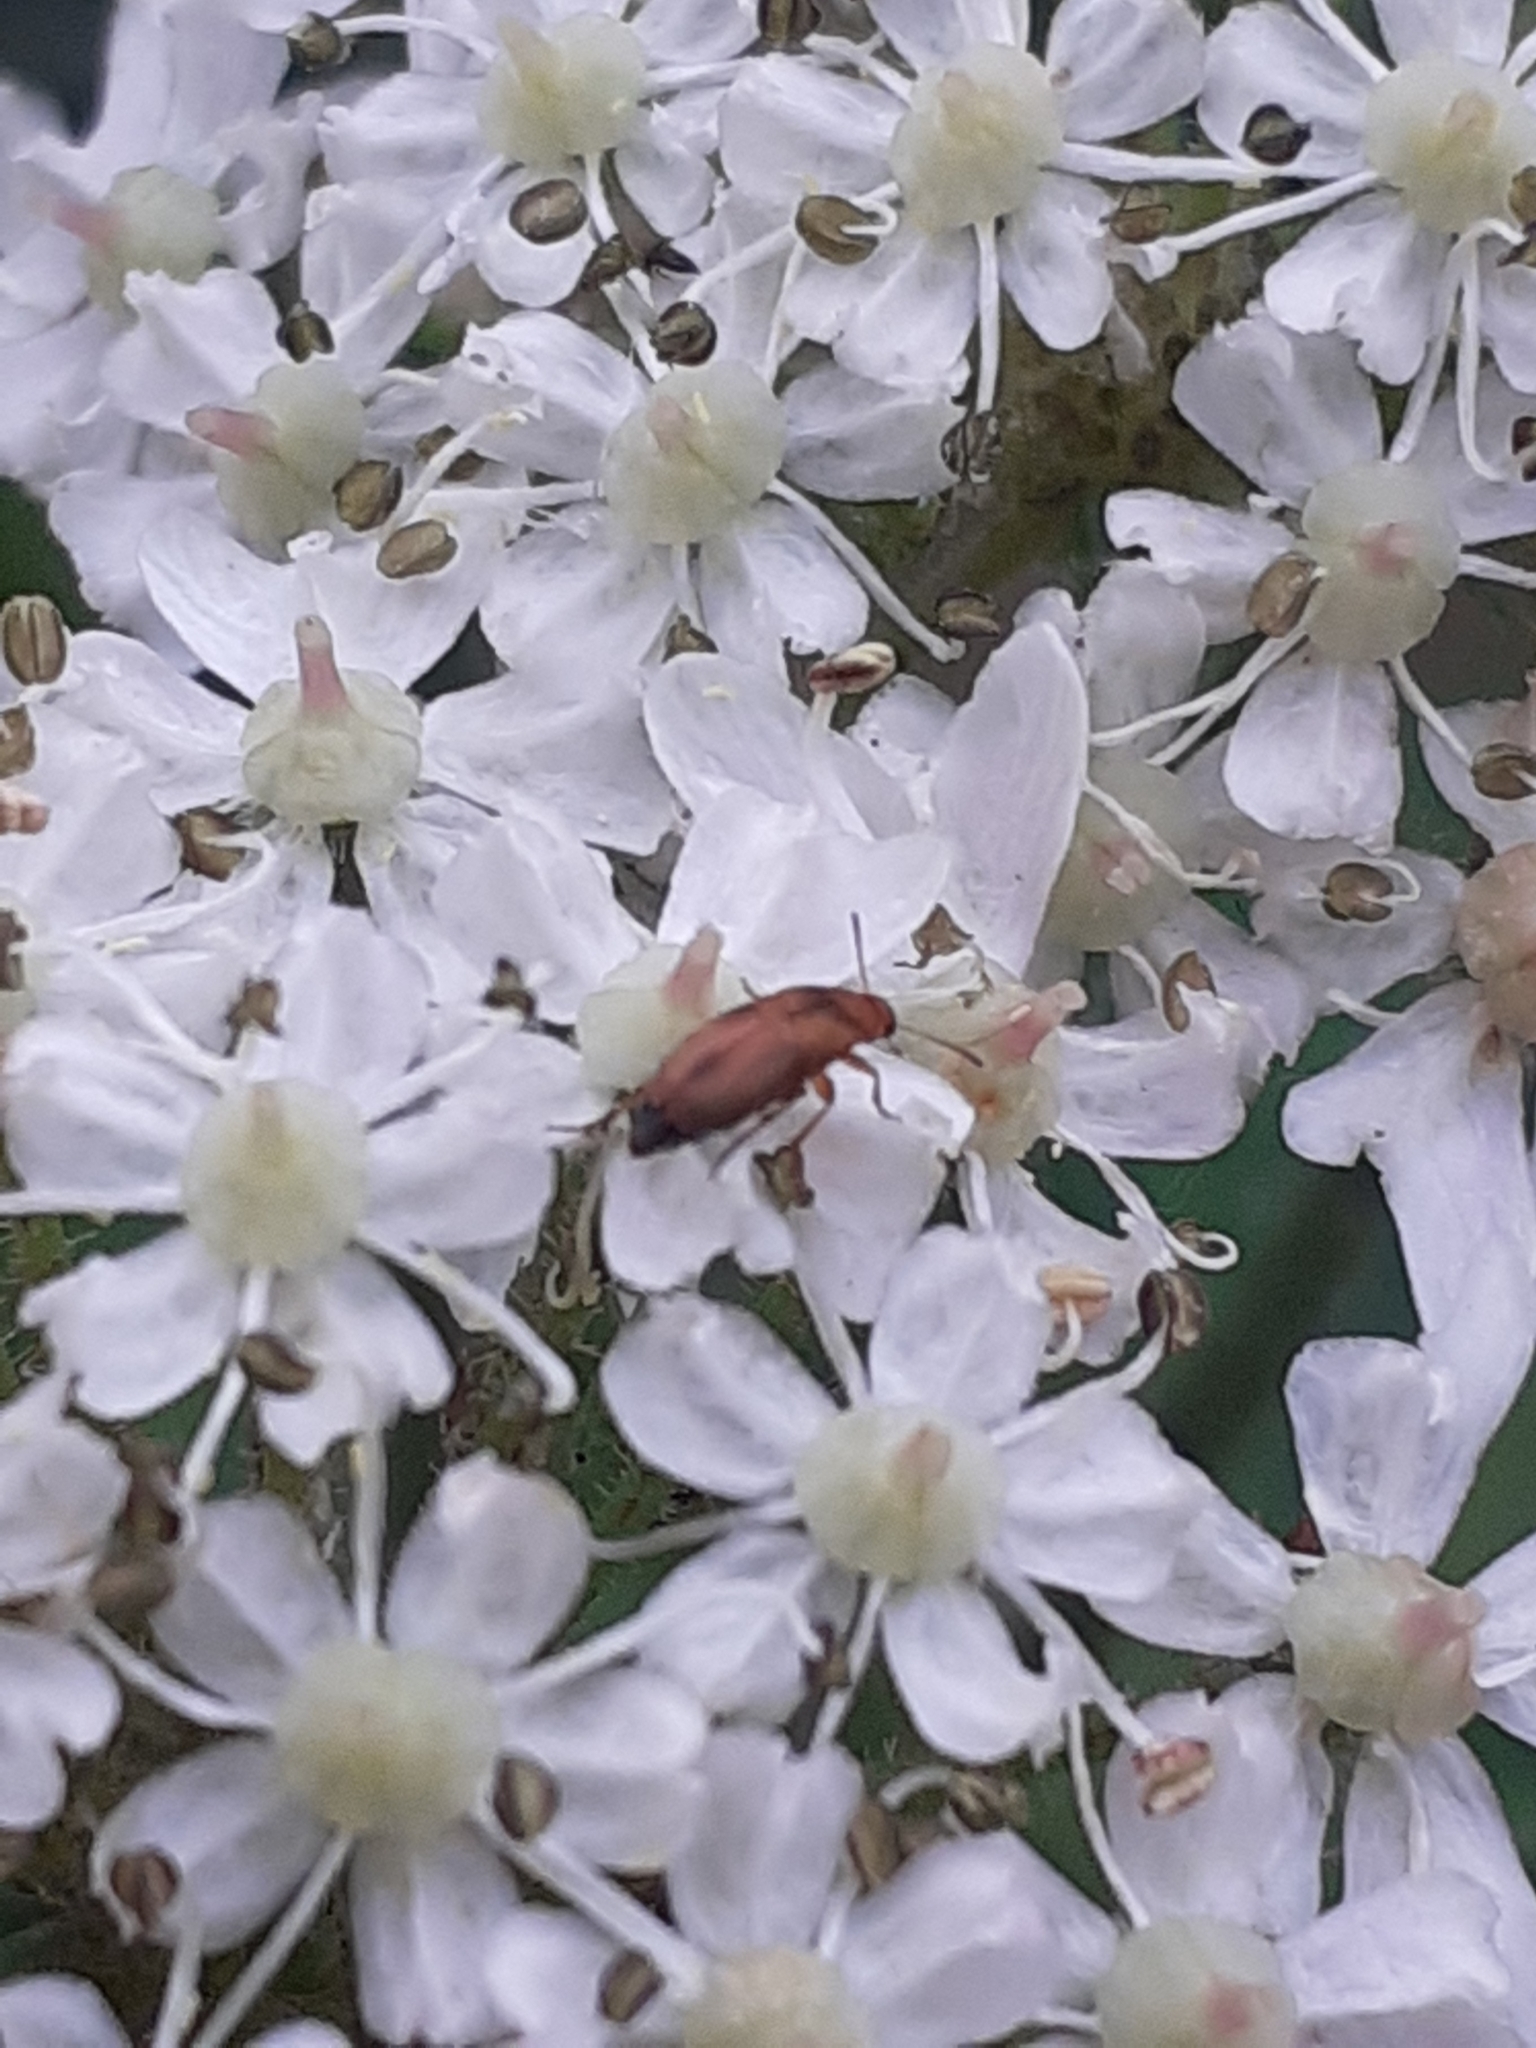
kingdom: Animalia
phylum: Arthropoda
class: Insecta
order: Coleoptera
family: Scraptiidae
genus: Anaspis
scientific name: Anaspis maculata
